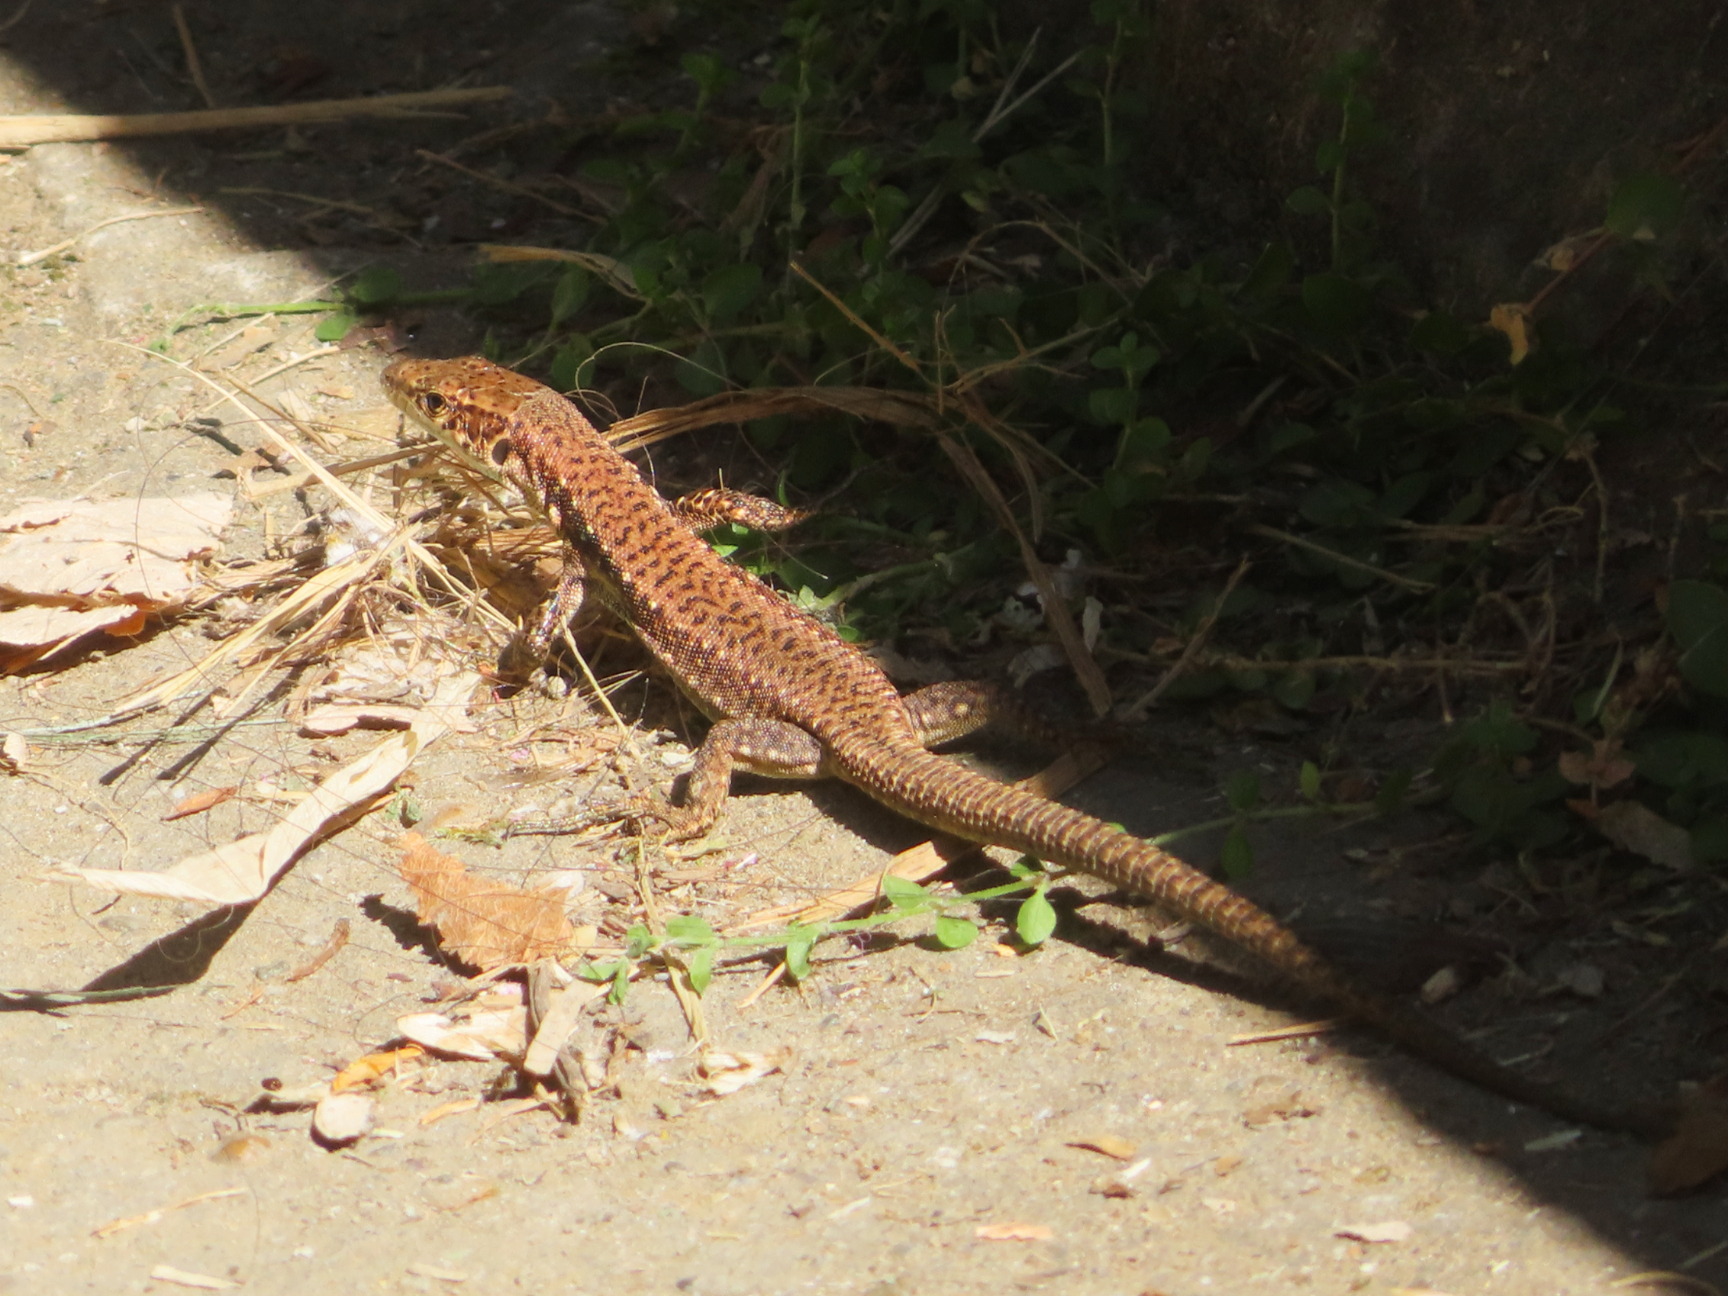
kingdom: Animalia
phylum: Chordata
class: Squamata
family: Lacertidae
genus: Darevskia
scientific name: Darevskia armeniaca
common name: Armenian lizard
